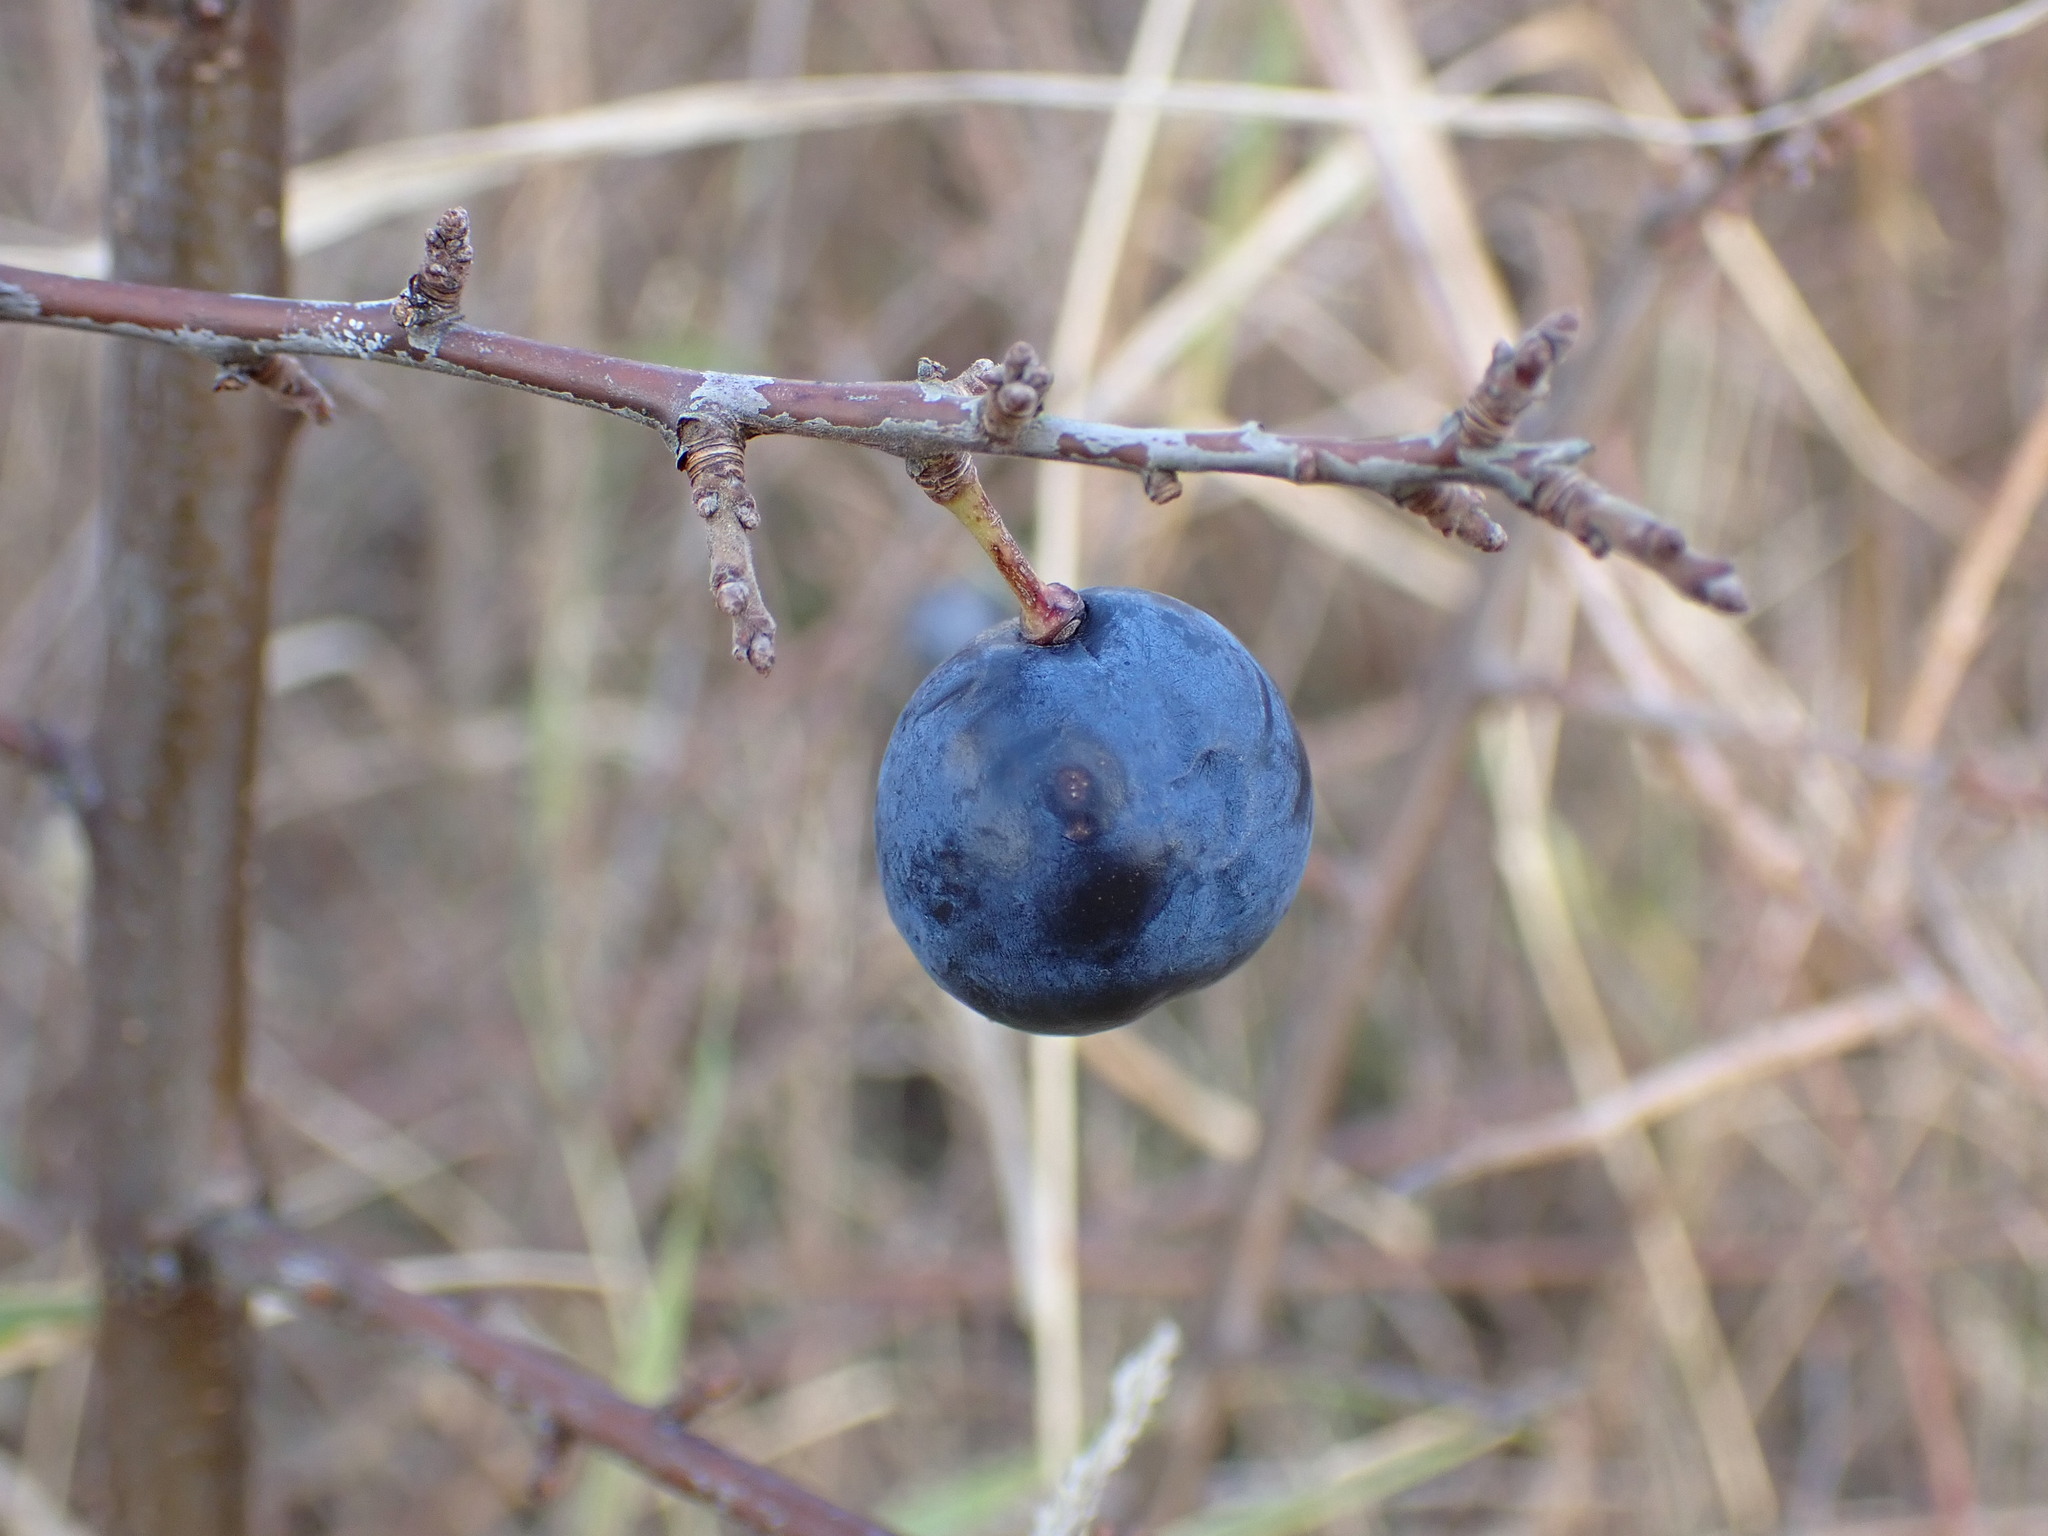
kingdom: Plantae
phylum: Tracheophyta
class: Magnoliopsida
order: Rosales
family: Rosaceae
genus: Prunus
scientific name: Prunus spinosa
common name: Blackthorn
